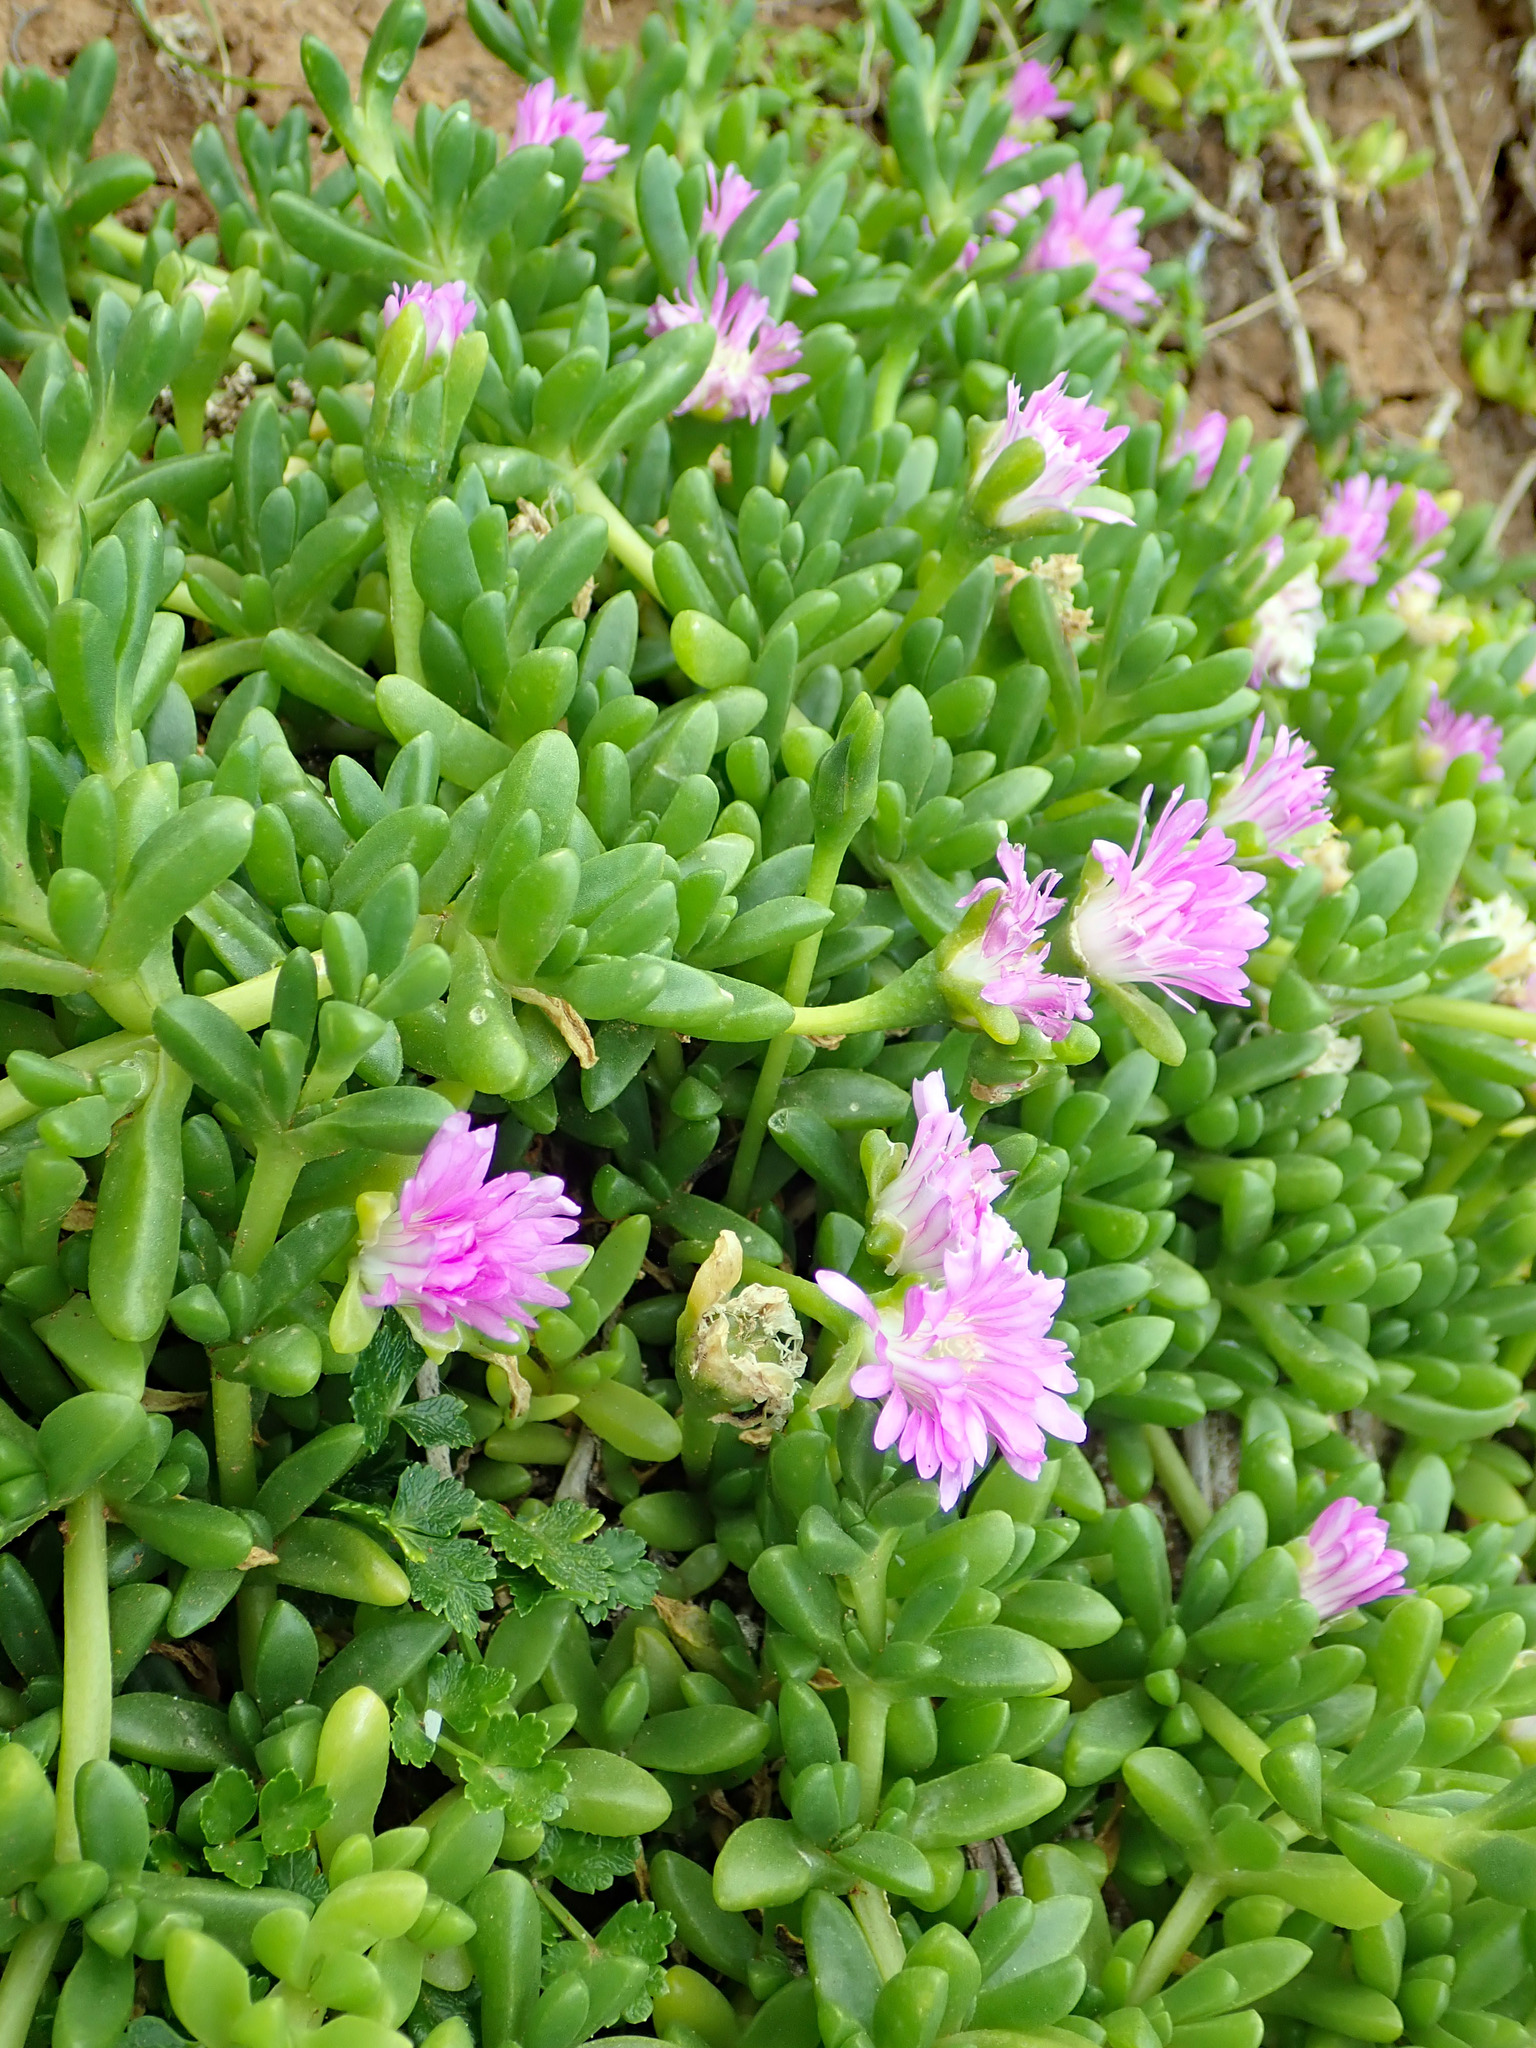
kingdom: Plantae
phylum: Tracheophyta
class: Magnoliopsida
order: Caryophyllales
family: Aizoaceae
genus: Disphyma
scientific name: Disphyma papillatum
